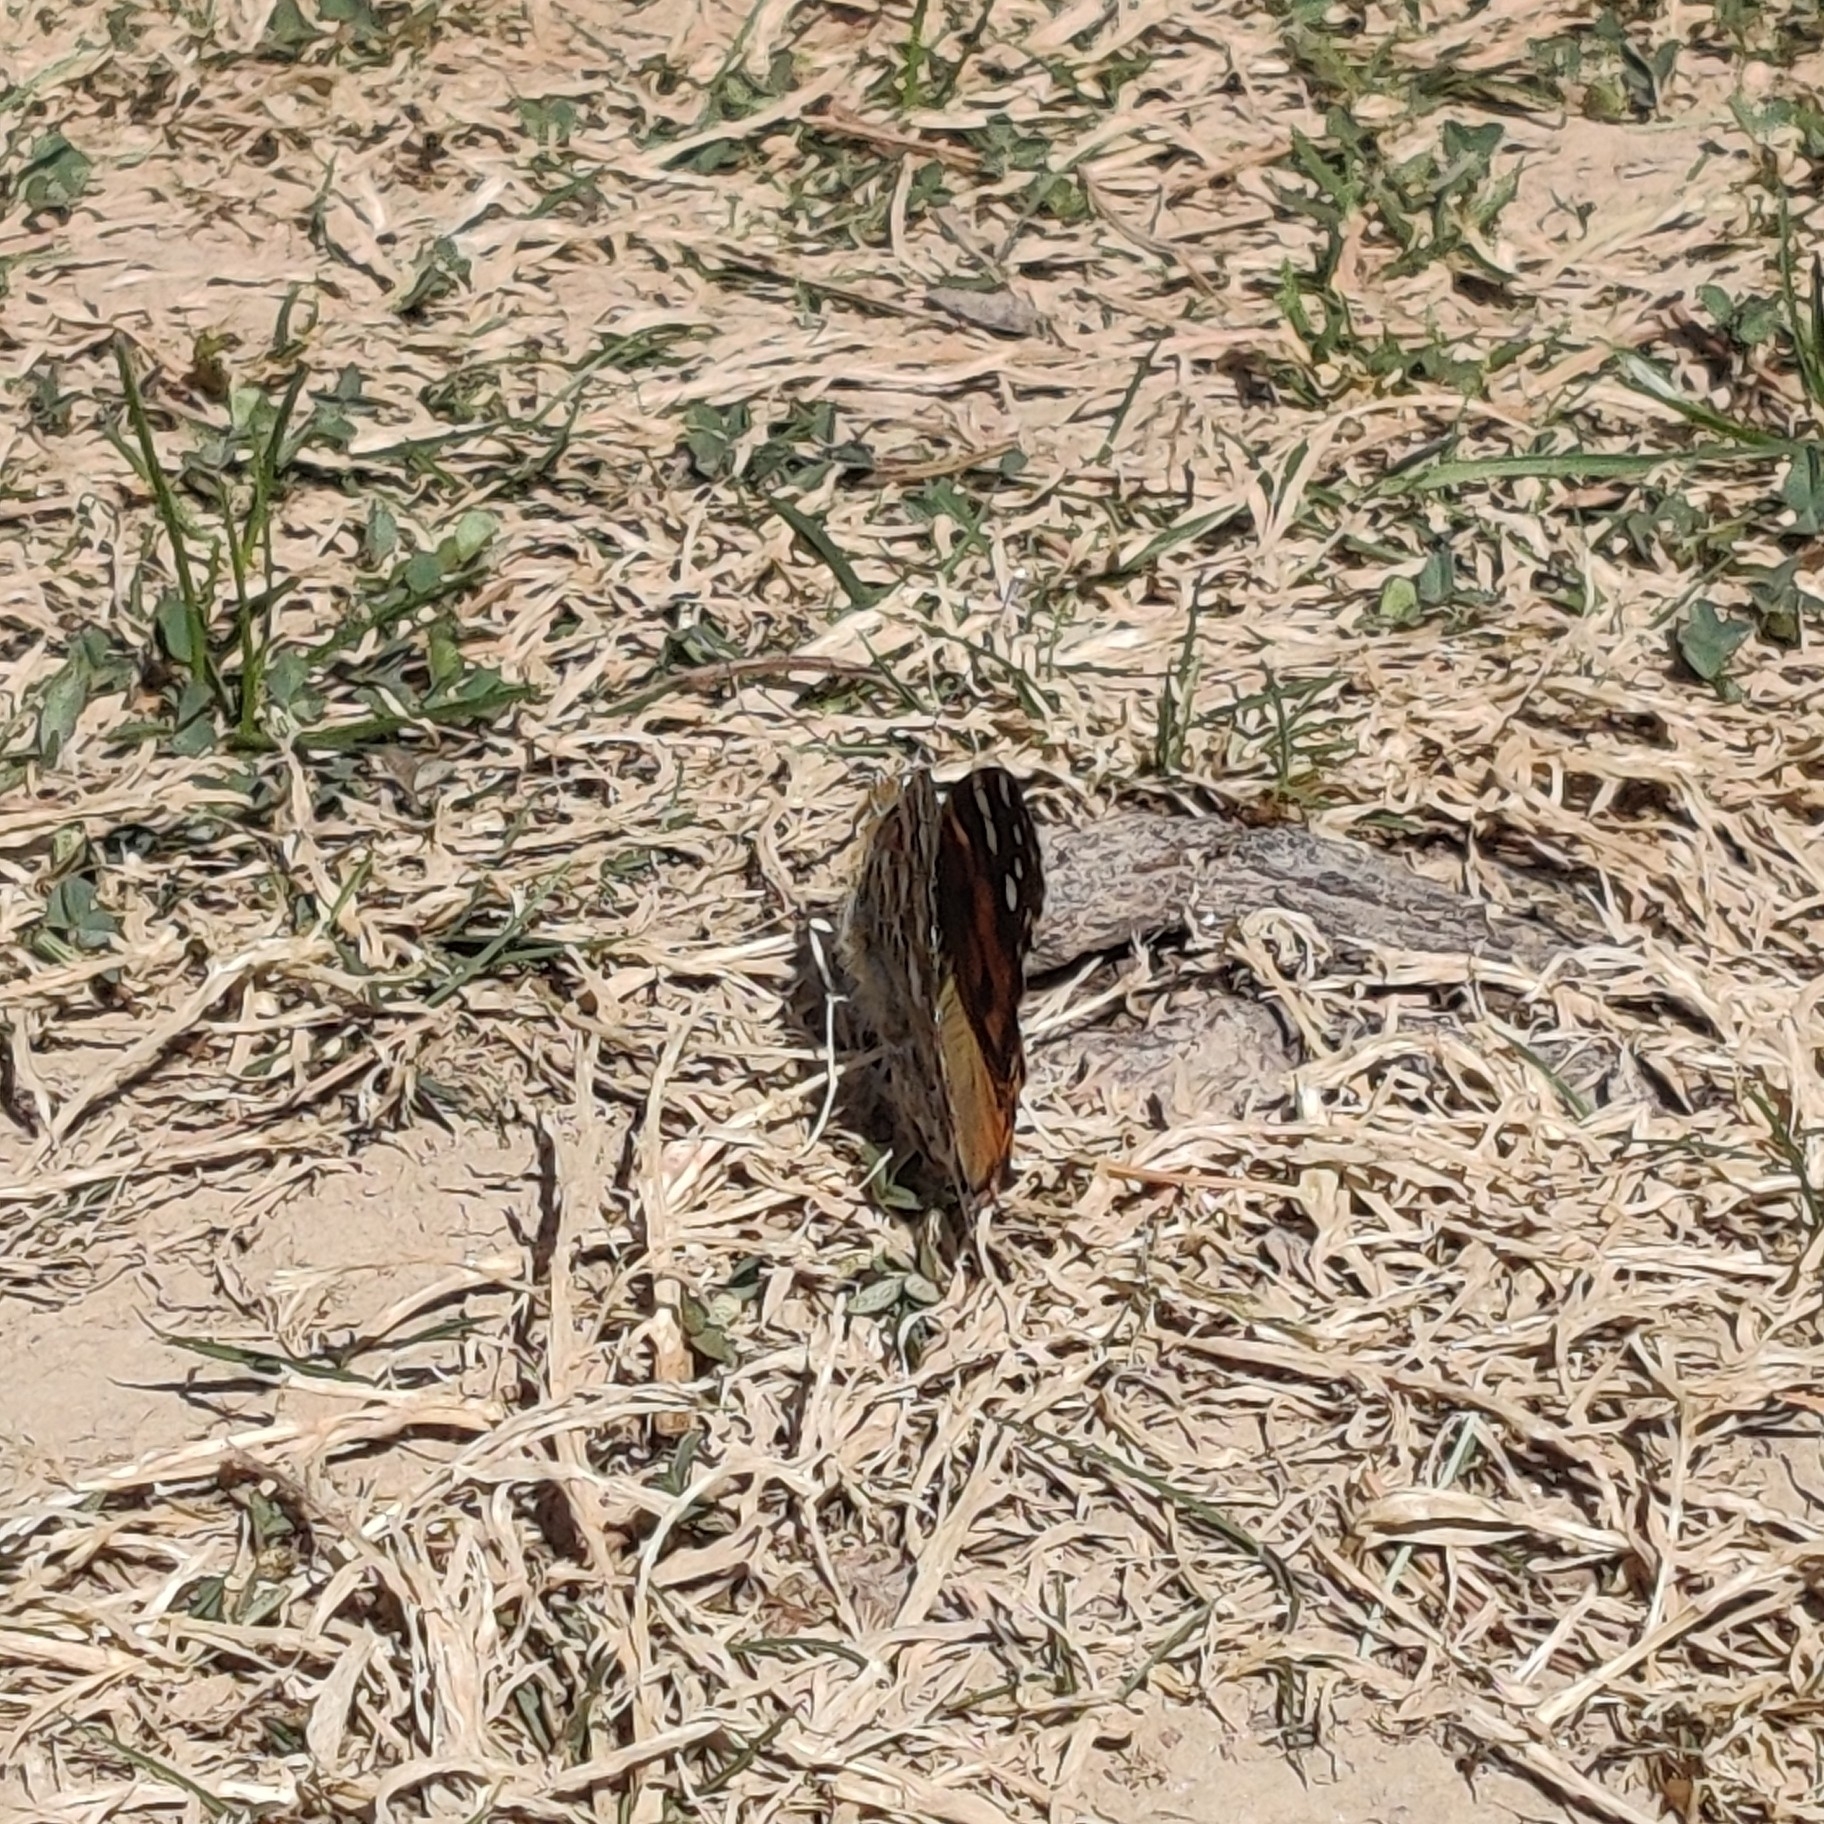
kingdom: Animalia
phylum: Arthropoda
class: Insecta
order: Lepidoptera
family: Nymphalidae
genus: Vanessa
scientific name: Vanessa indica
